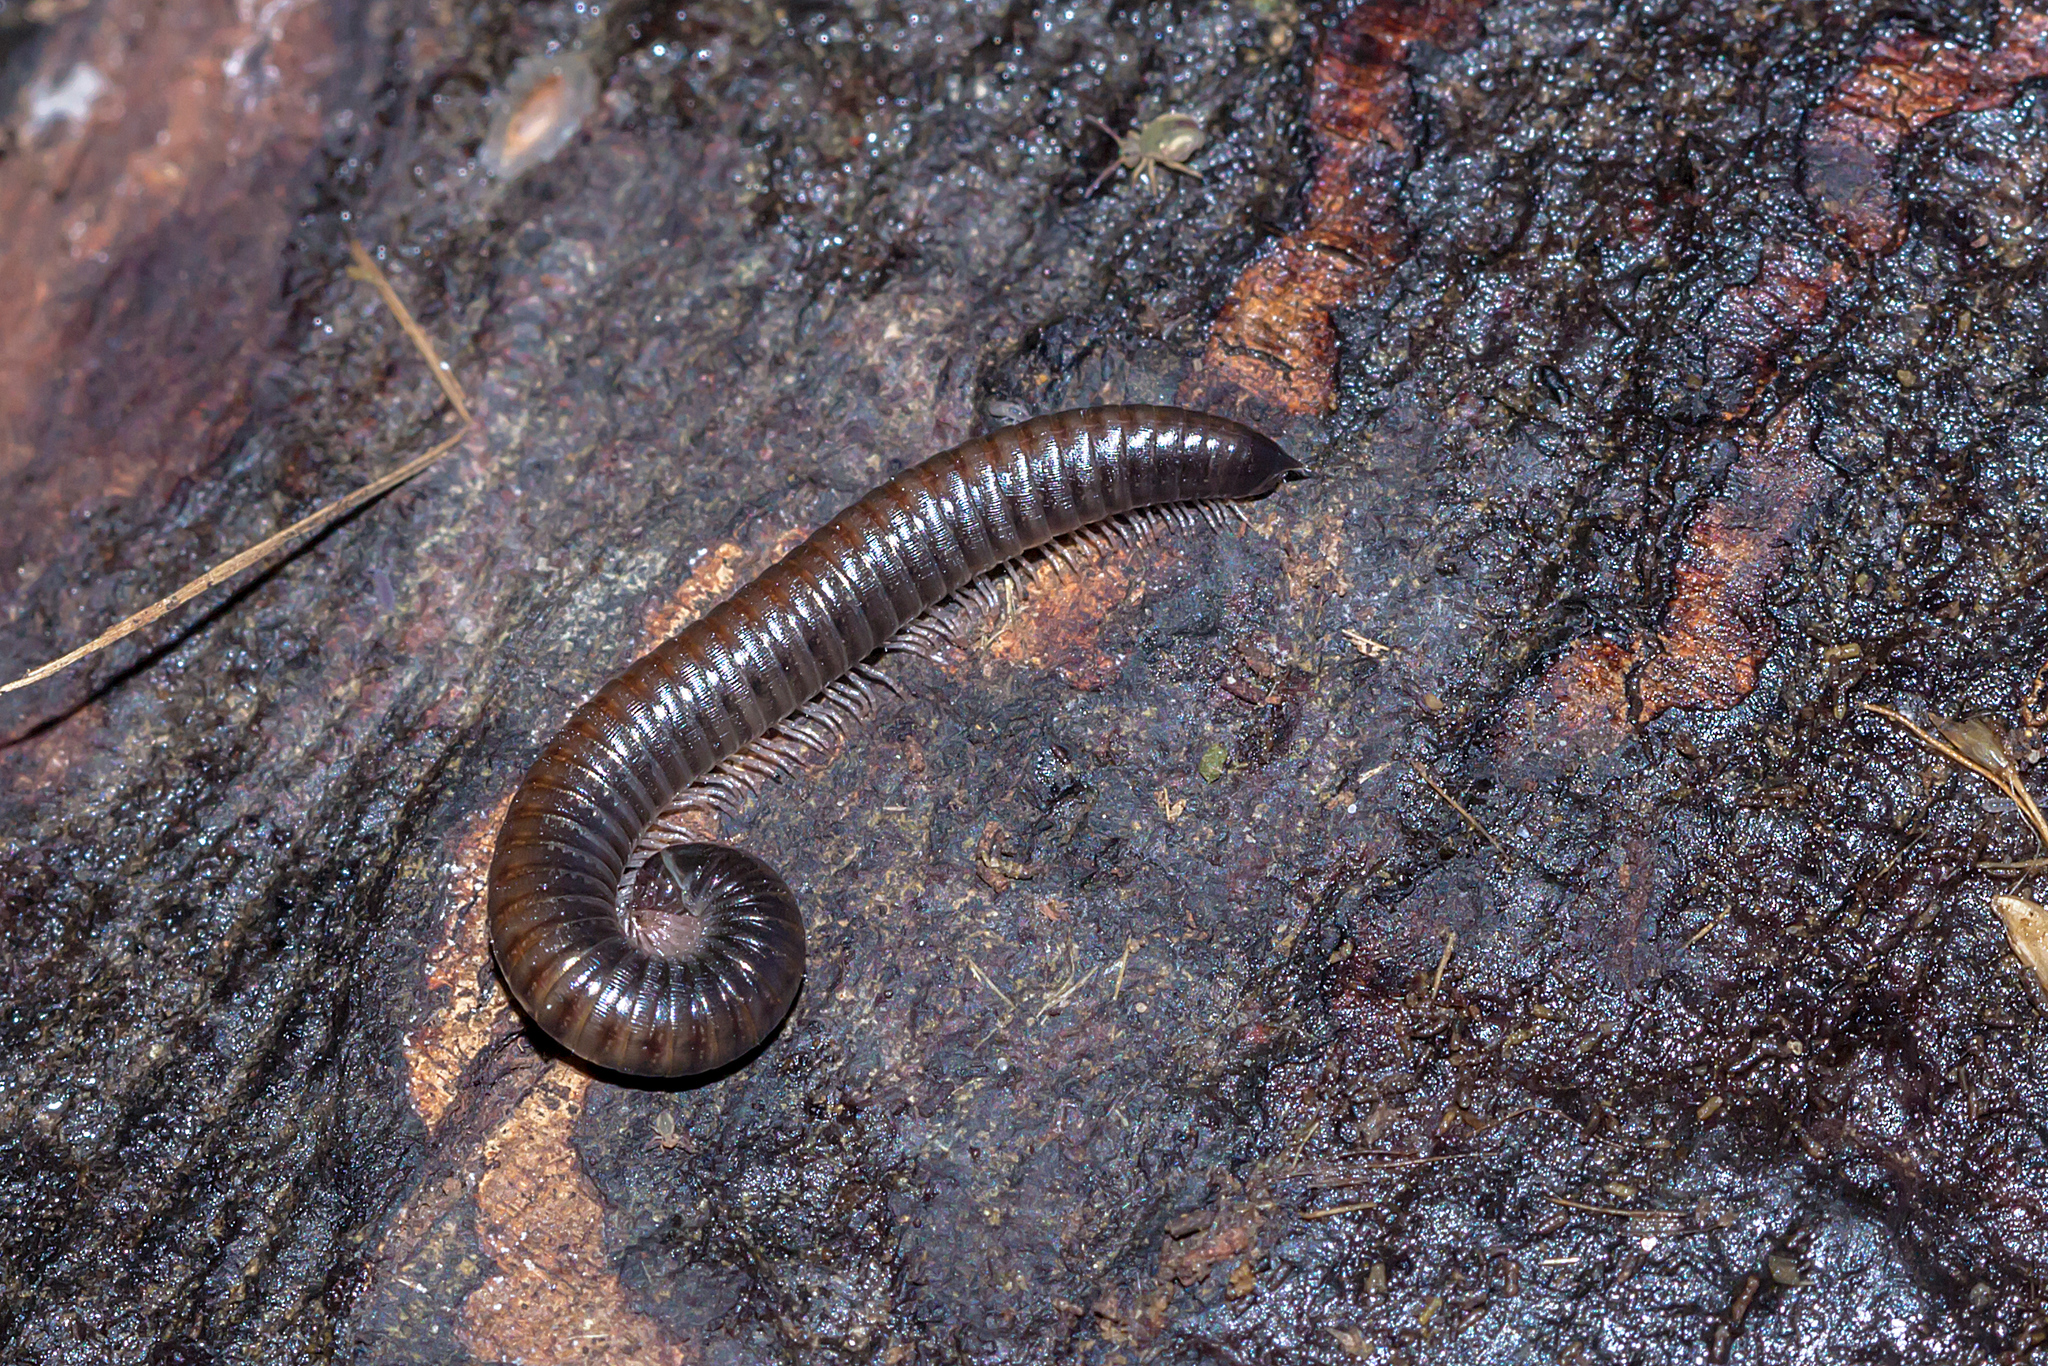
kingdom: Animalia
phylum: Arthropoda
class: Diplopoda
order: Julida
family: Julidae
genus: Ommatoiulus
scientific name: Ommatoiulus moreleti
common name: Portuguese millipede
